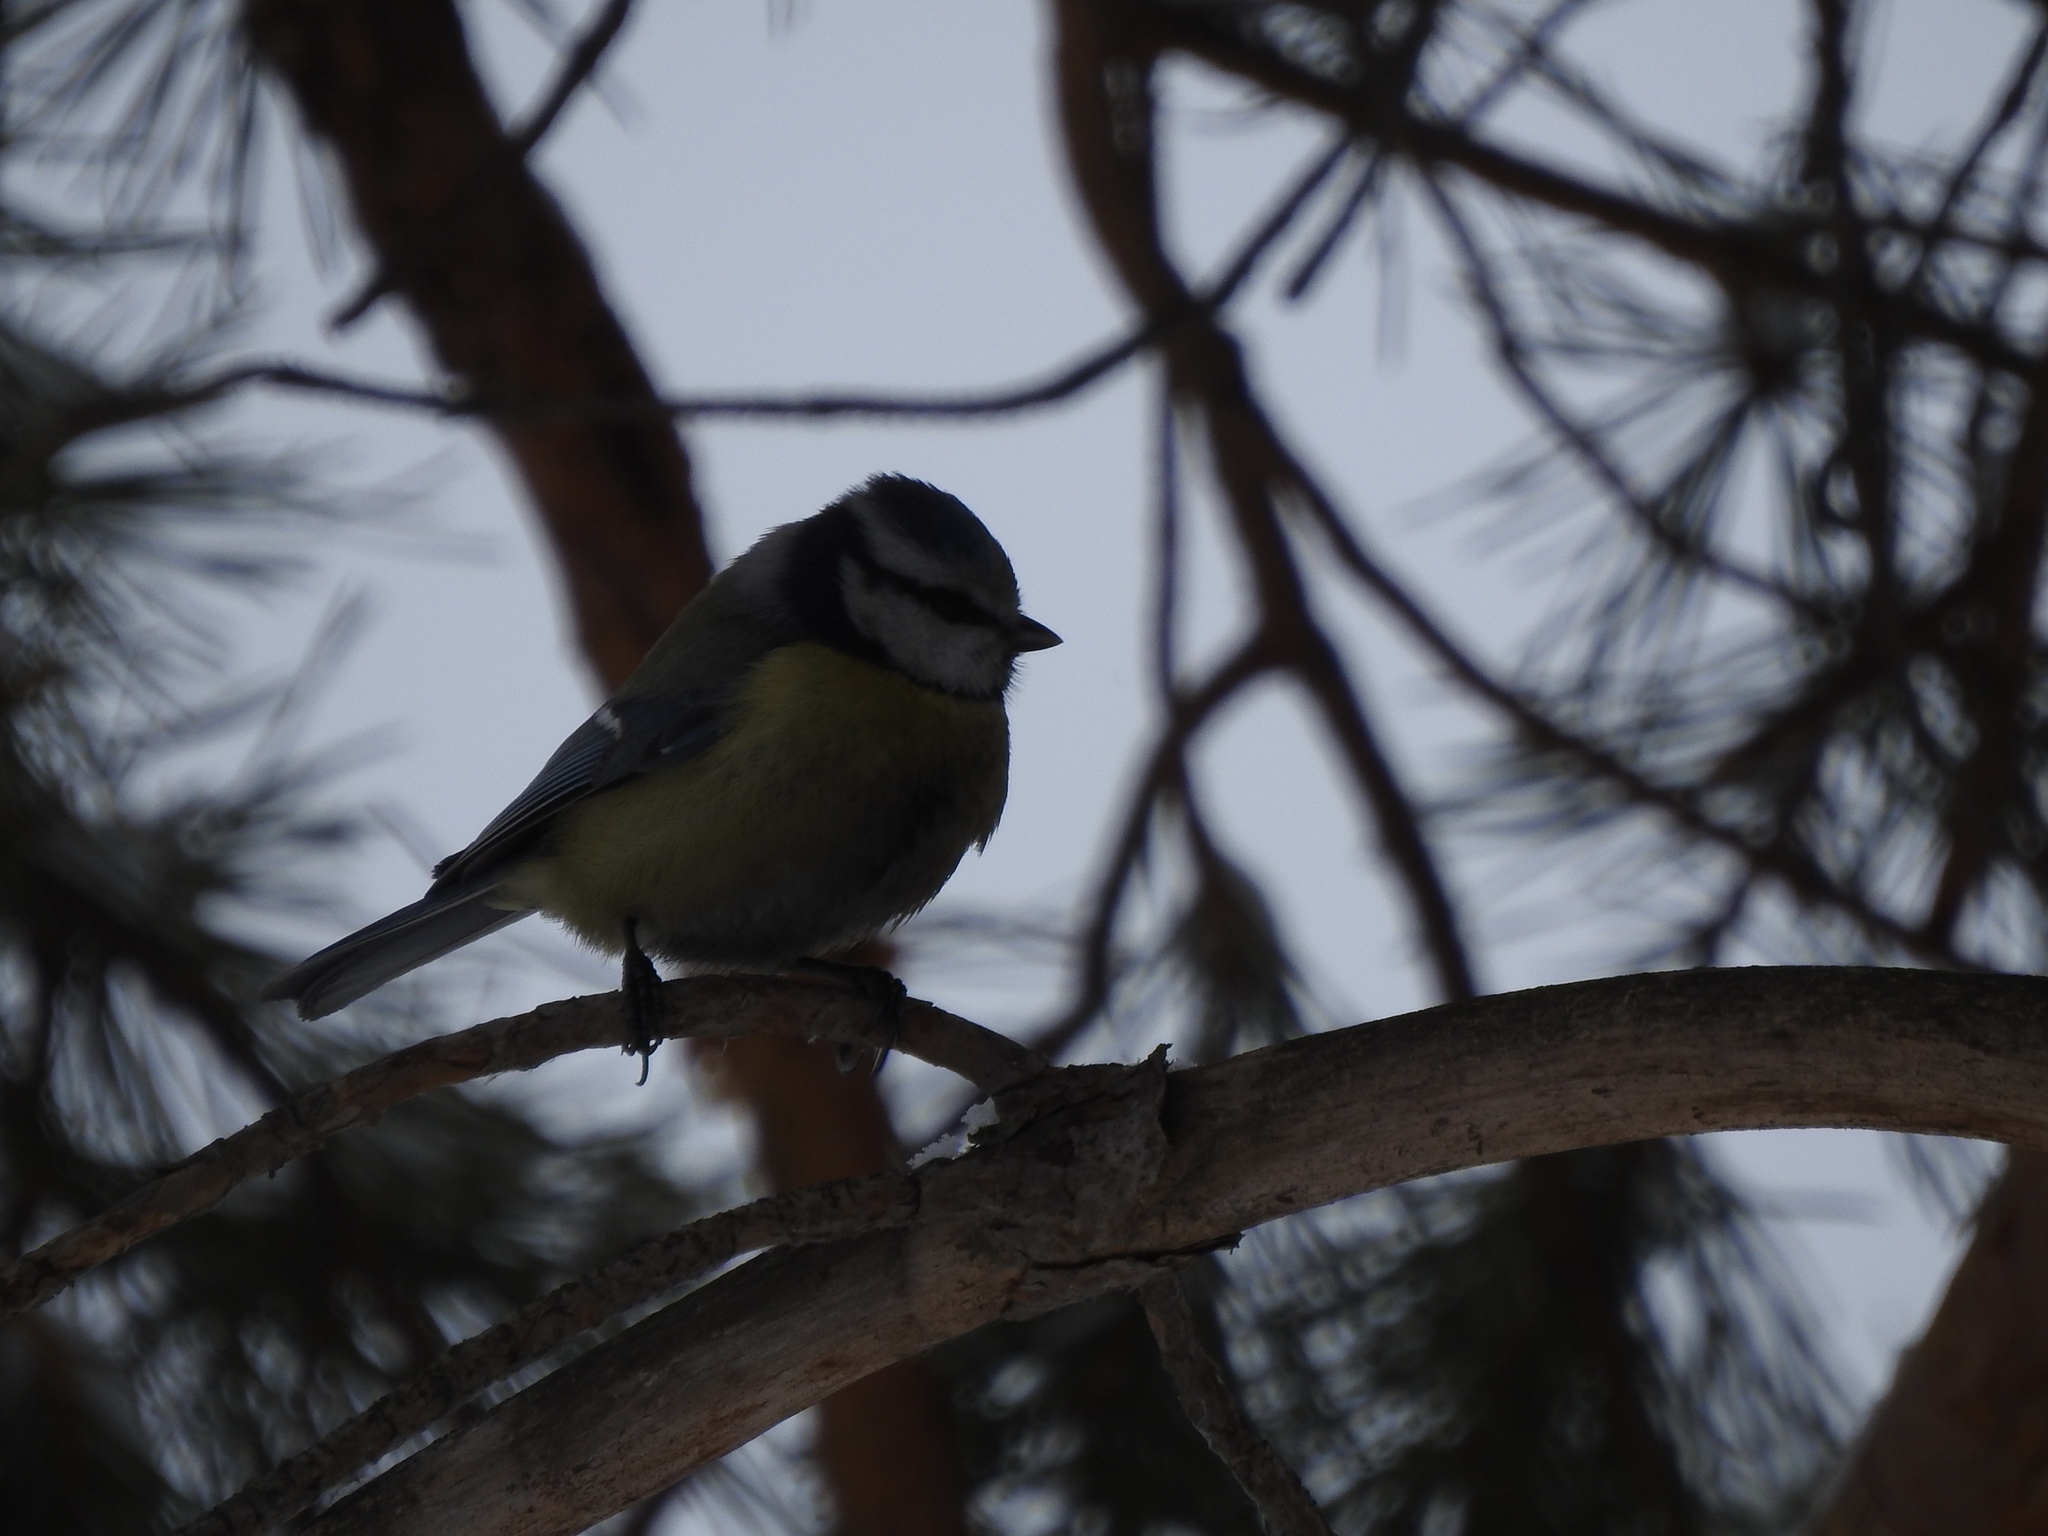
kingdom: Animalia
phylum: Chordata
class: Aves
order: Passeriformes
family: Paridae
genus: Cyanistes
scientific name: Cyanistes caeruleus
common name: Eurasian blue tit
